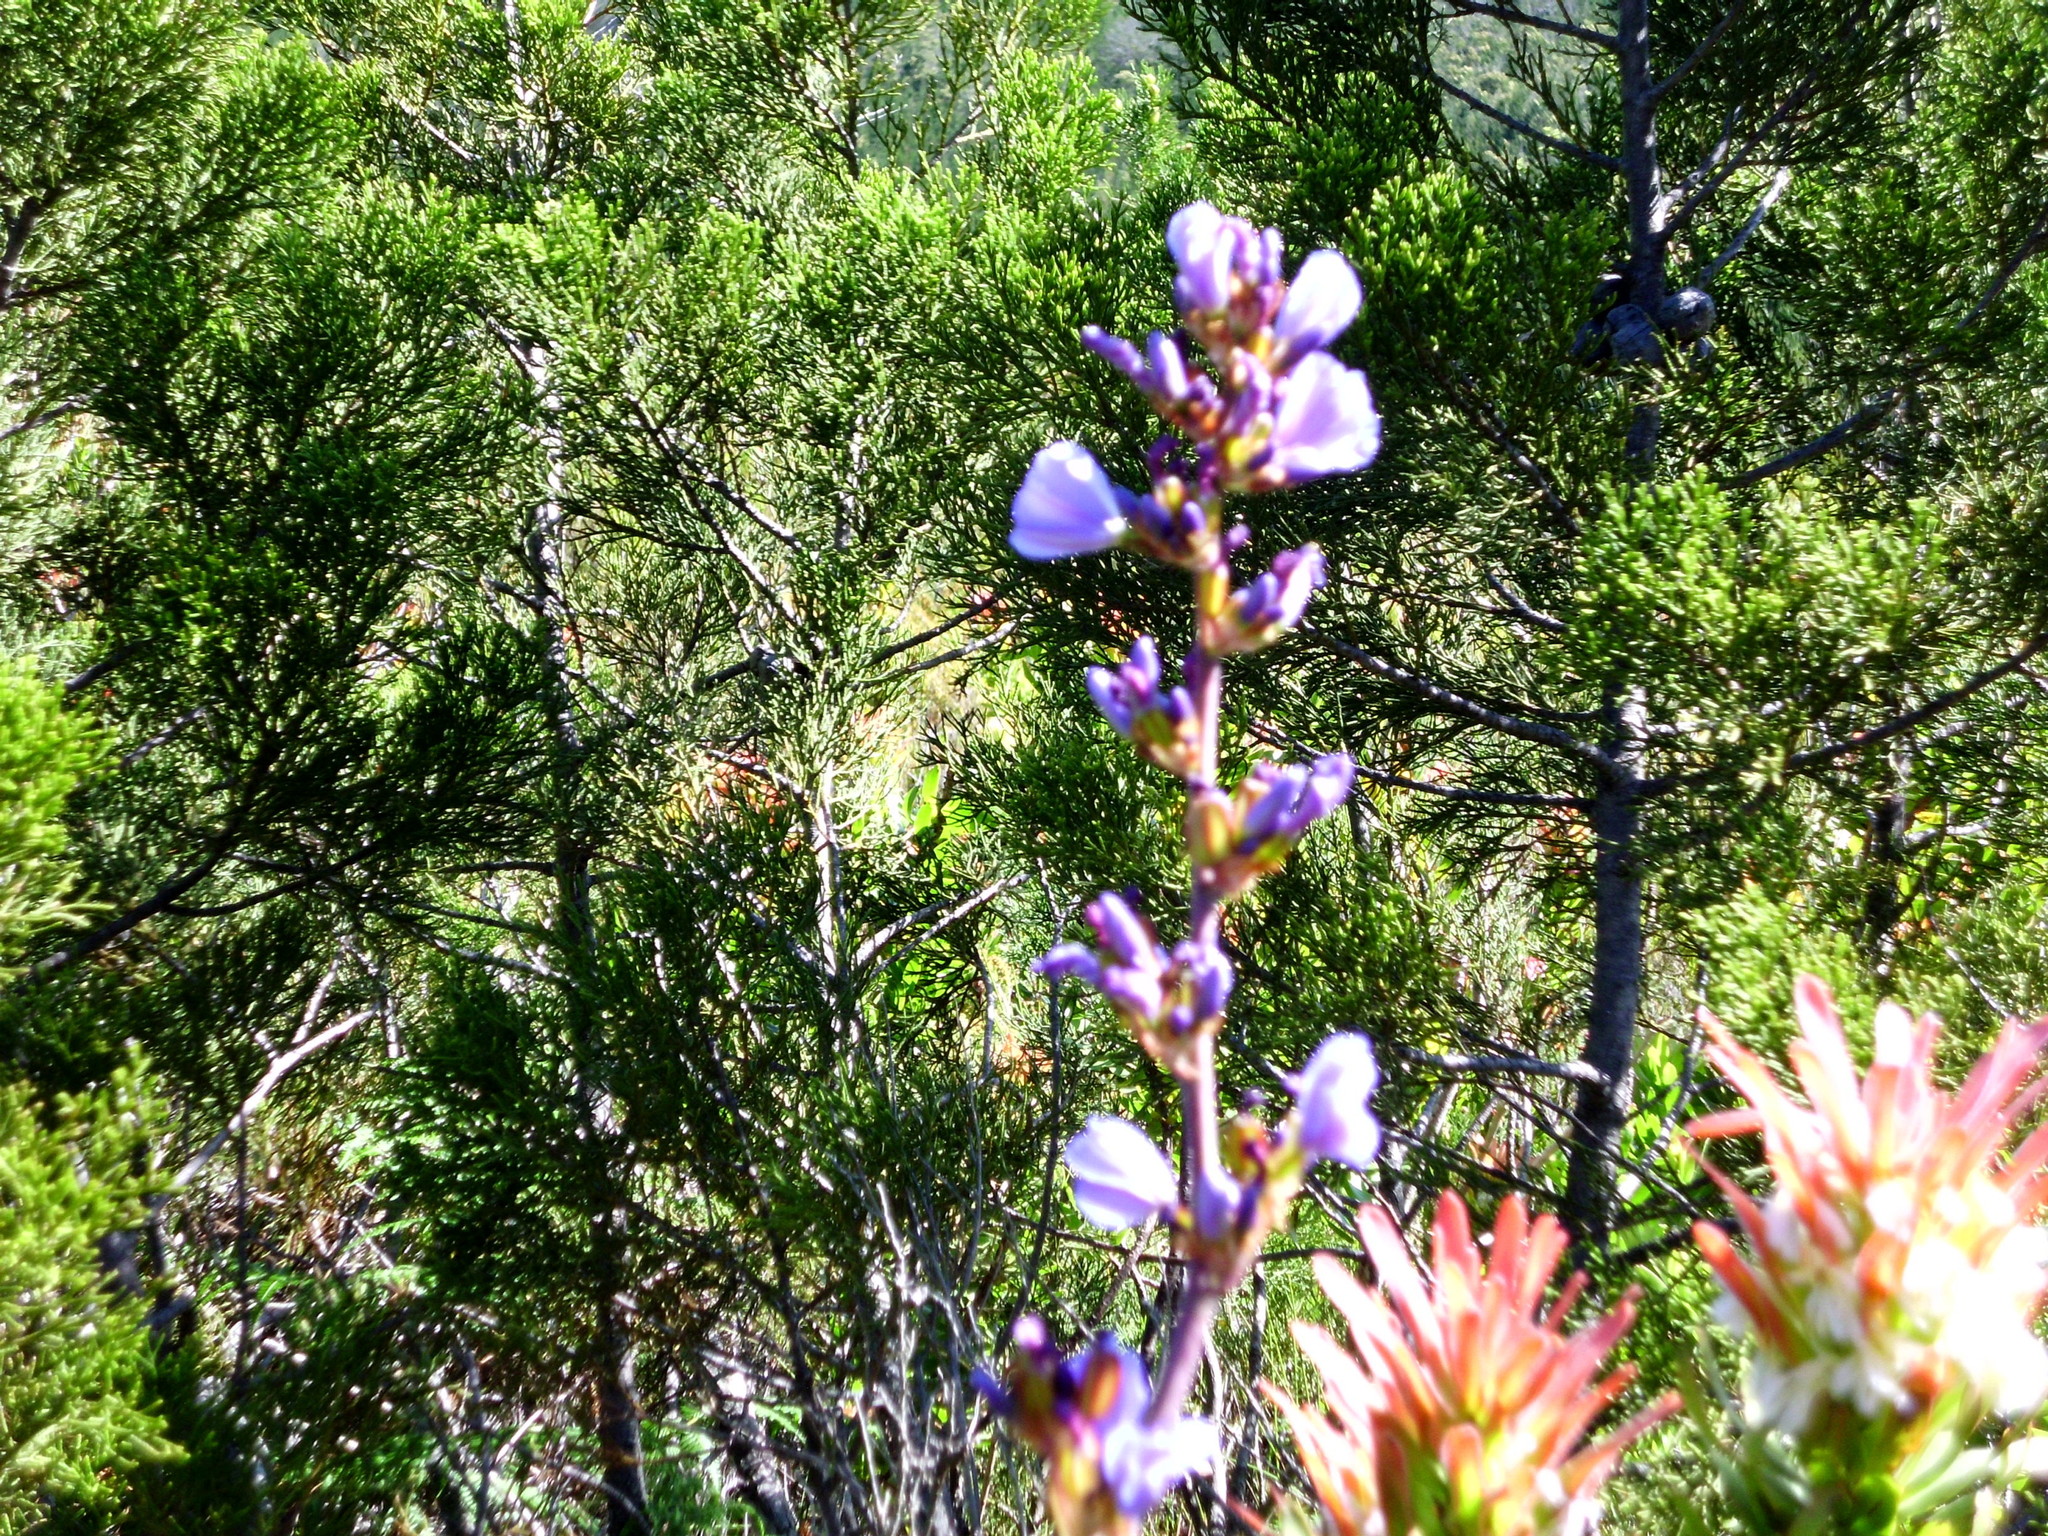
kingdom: Plantae
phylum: Tracheophyta
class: Liliopsida
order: Asparagales
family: Iridaceae
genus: Aristea
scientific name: Aristea bakeri
